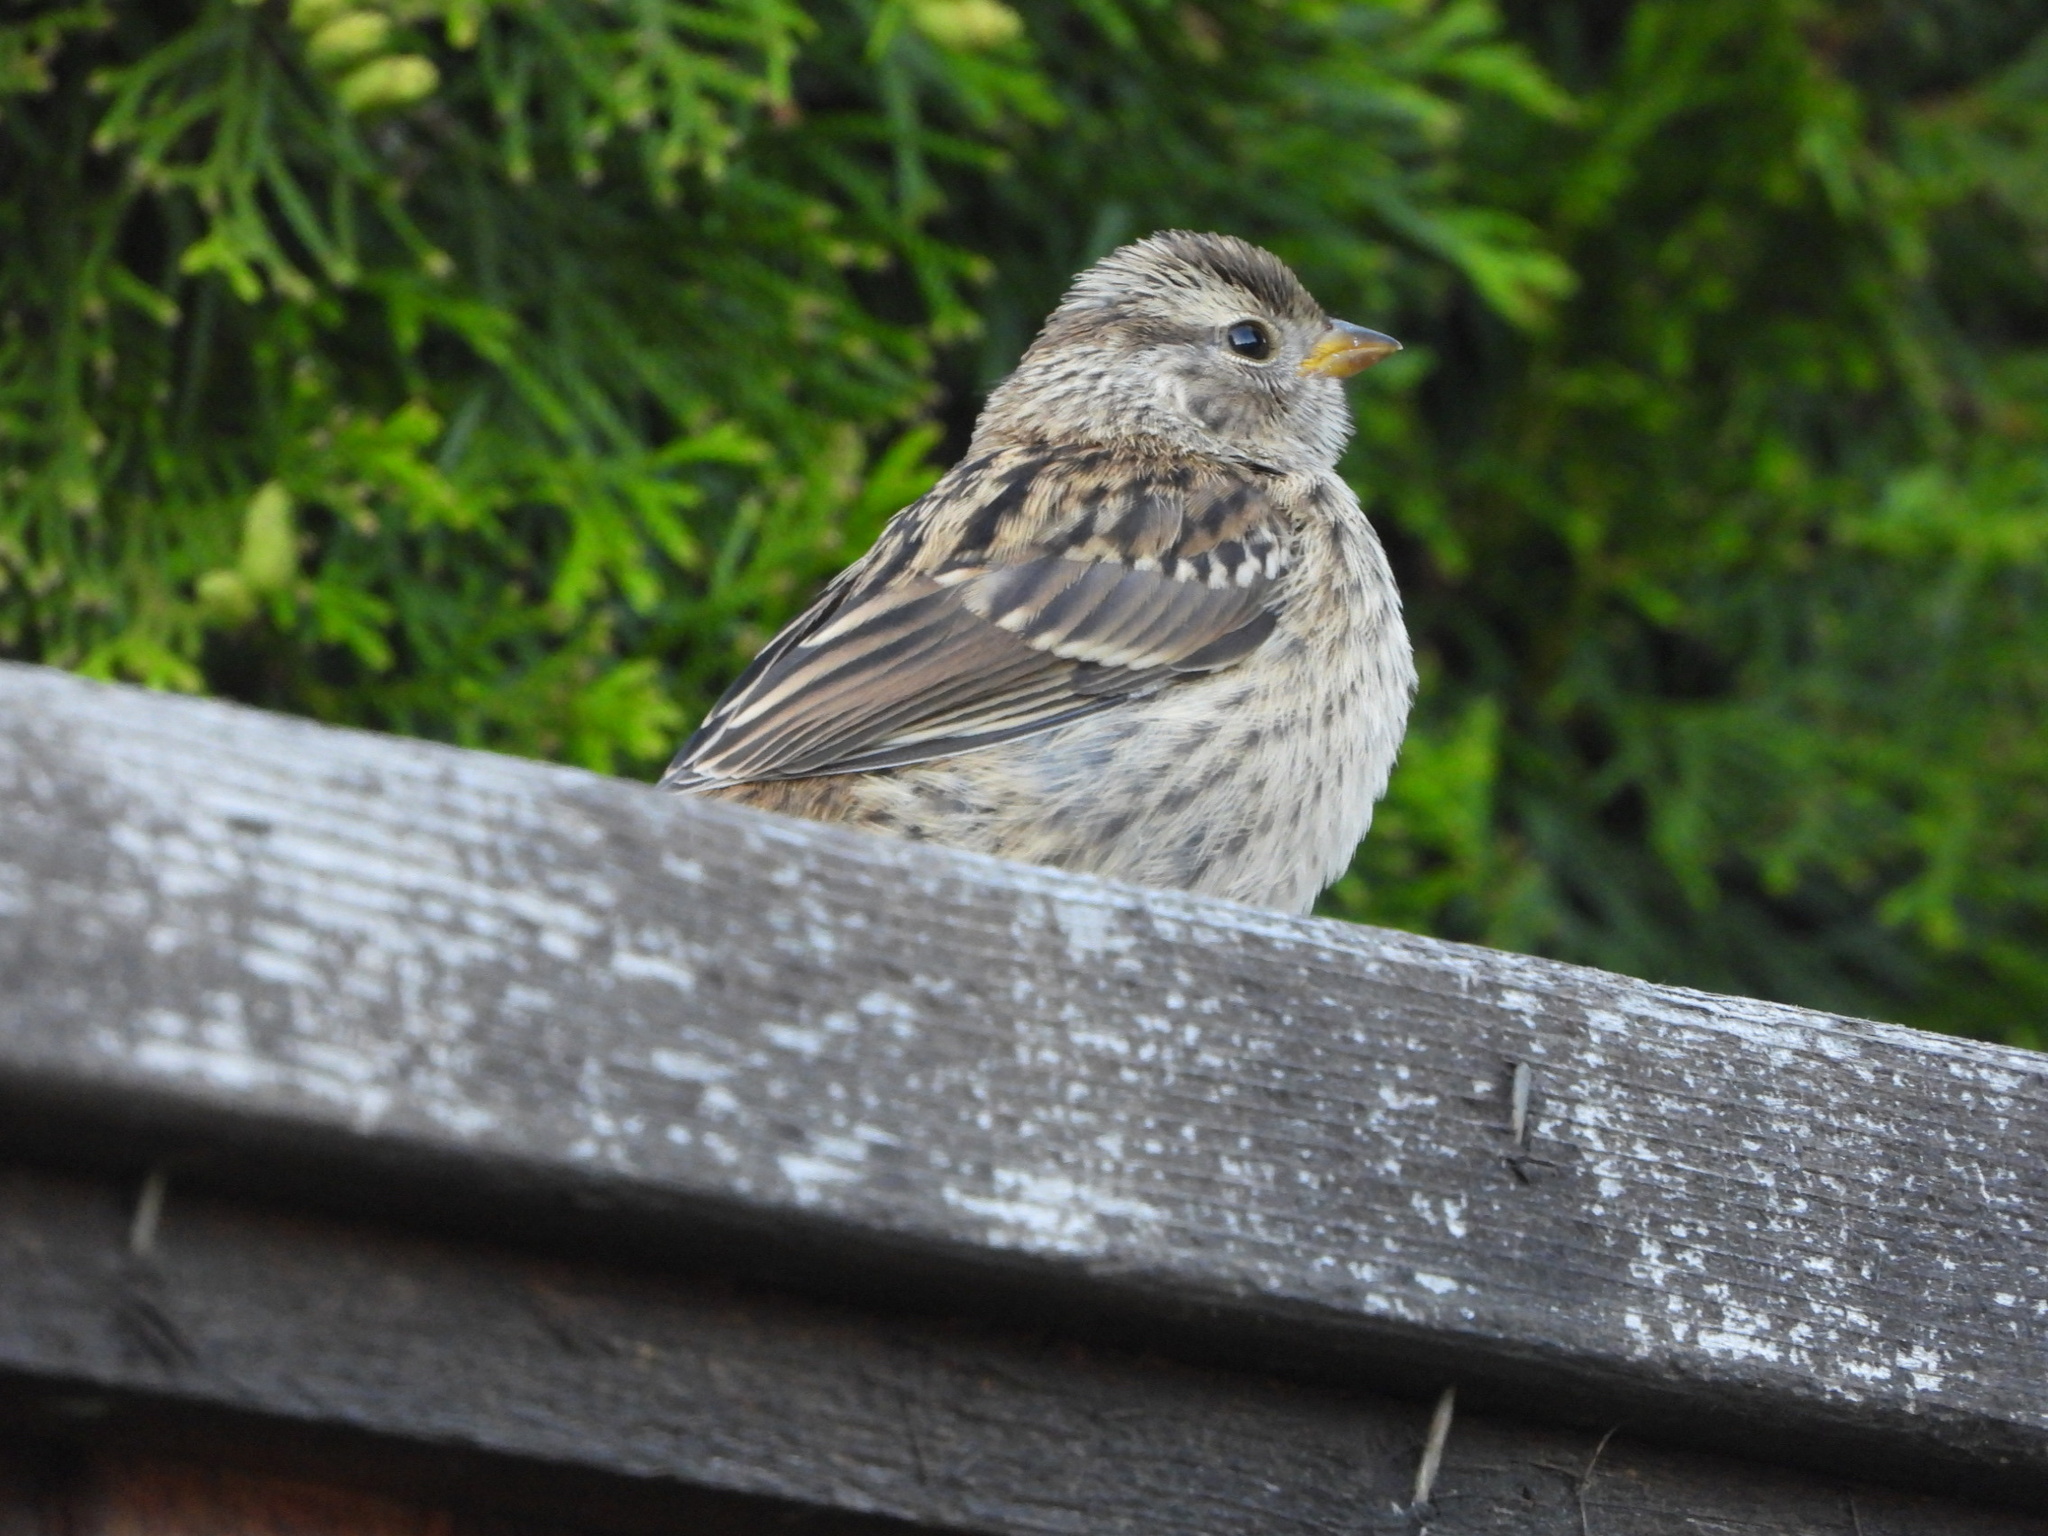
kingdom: Animalia
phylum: Chordata
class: Aves
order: Passeriformes
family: Passerellidae
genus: Zonotrichia
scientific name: Zonotrichia leucophrys
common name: White-crowned sparrow
